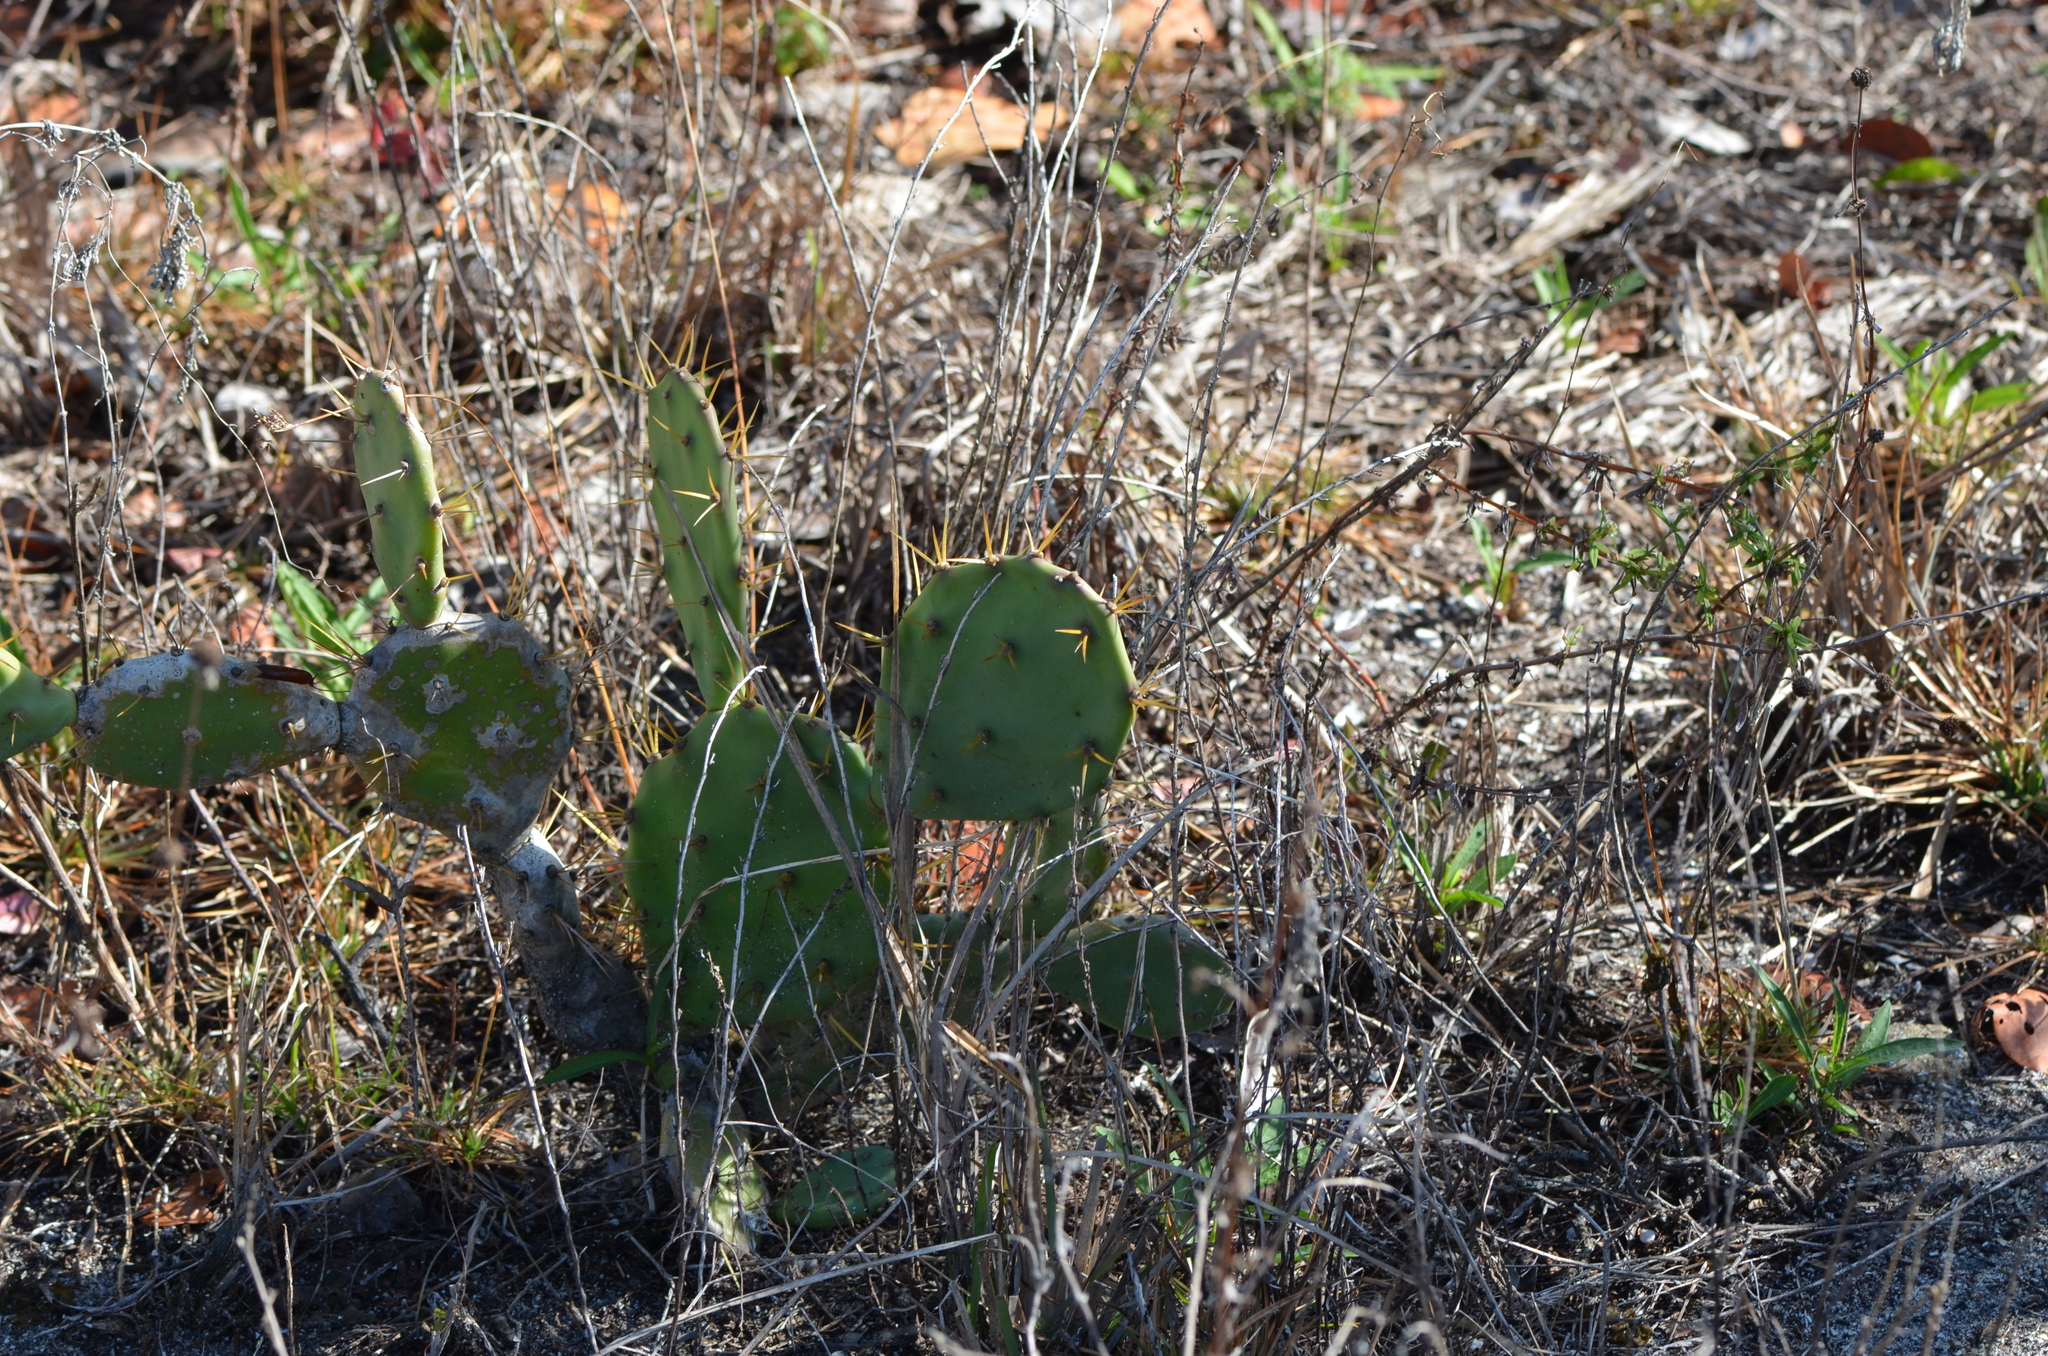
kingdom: Plantae
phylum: Tracheophyta
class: Magnoliopsida
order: Caryophyllales
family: Cactaceae
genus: Opuntia
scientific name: Opuntia dillenii
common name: Sour prickle
